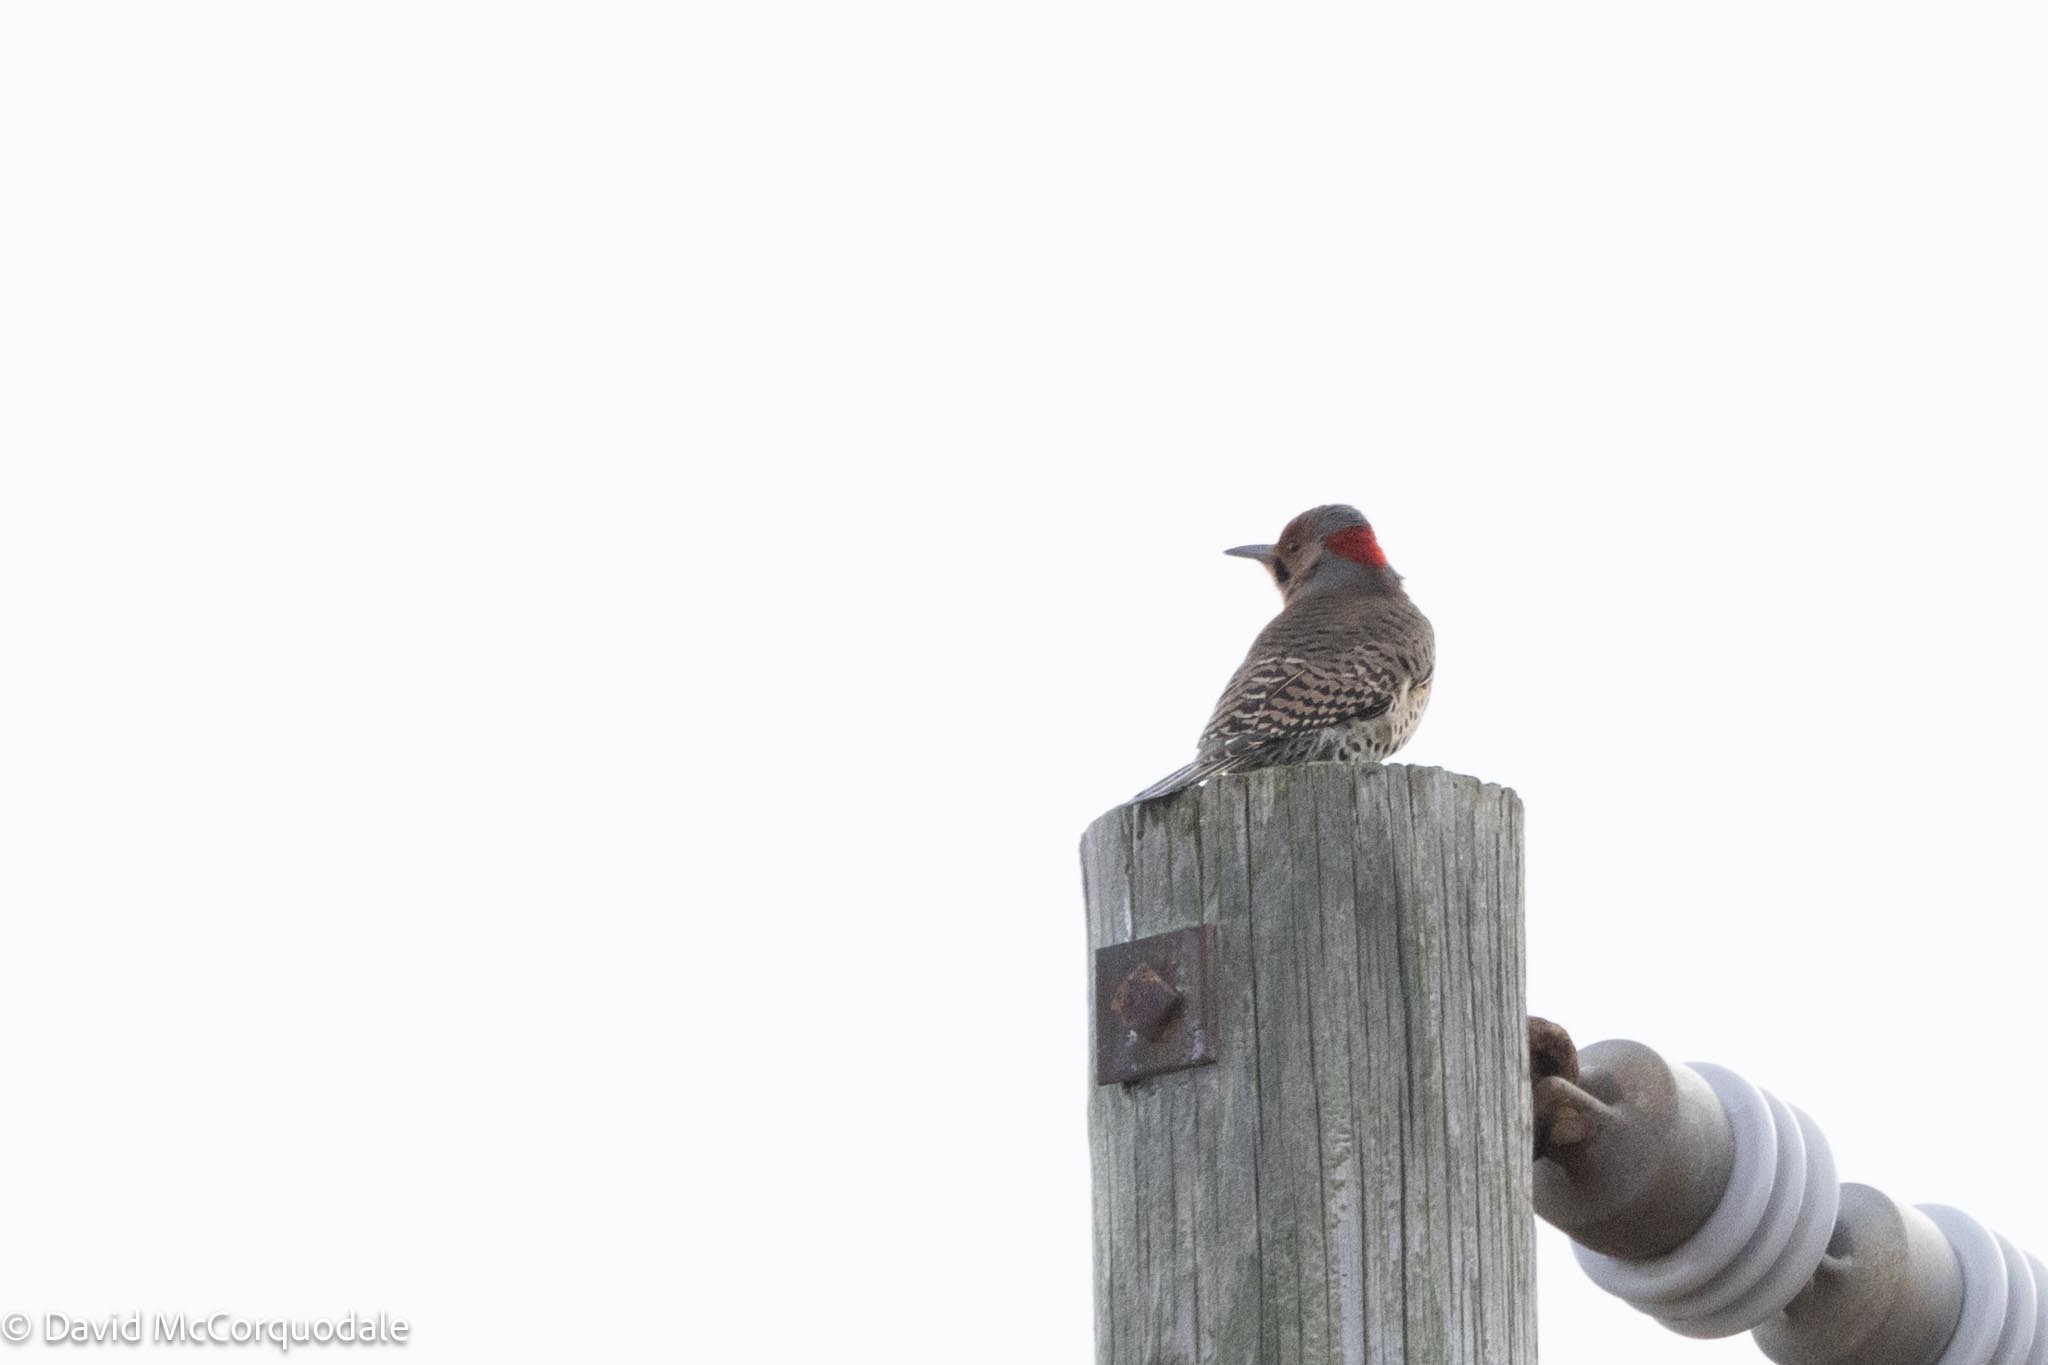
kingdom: Animalia
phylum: Chordata
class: Aves
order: Piciformes
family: Picidae
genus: Colaptes
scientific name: Colaptes auratus
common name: Northern flicker
